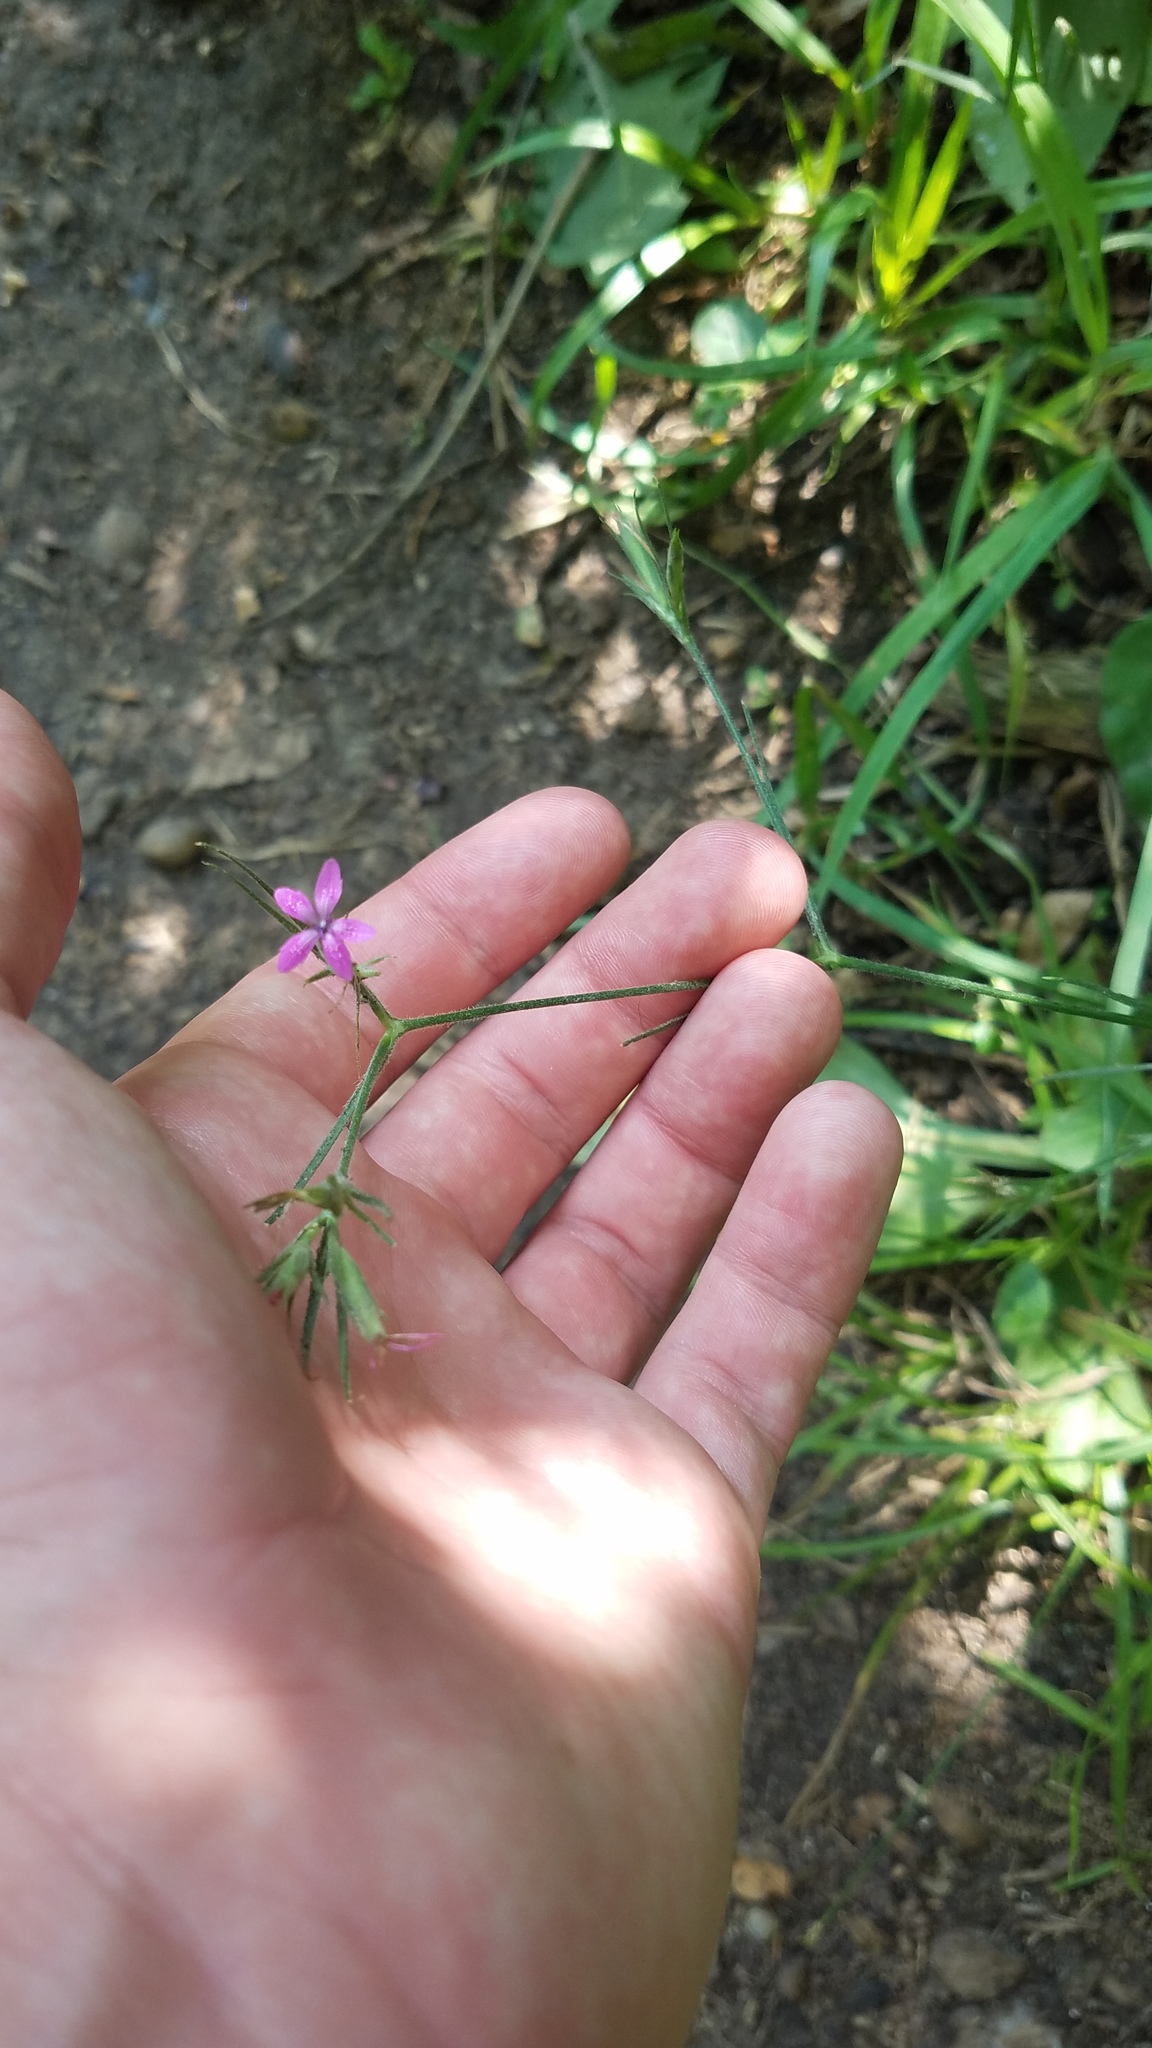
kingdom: Plantae
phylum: Tracheophyta
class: Magnoliopsida
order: Caryophyllales
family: Caryophyllaceae
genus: Dianthus
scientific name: Dianthus armeria
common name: Deptford pink
